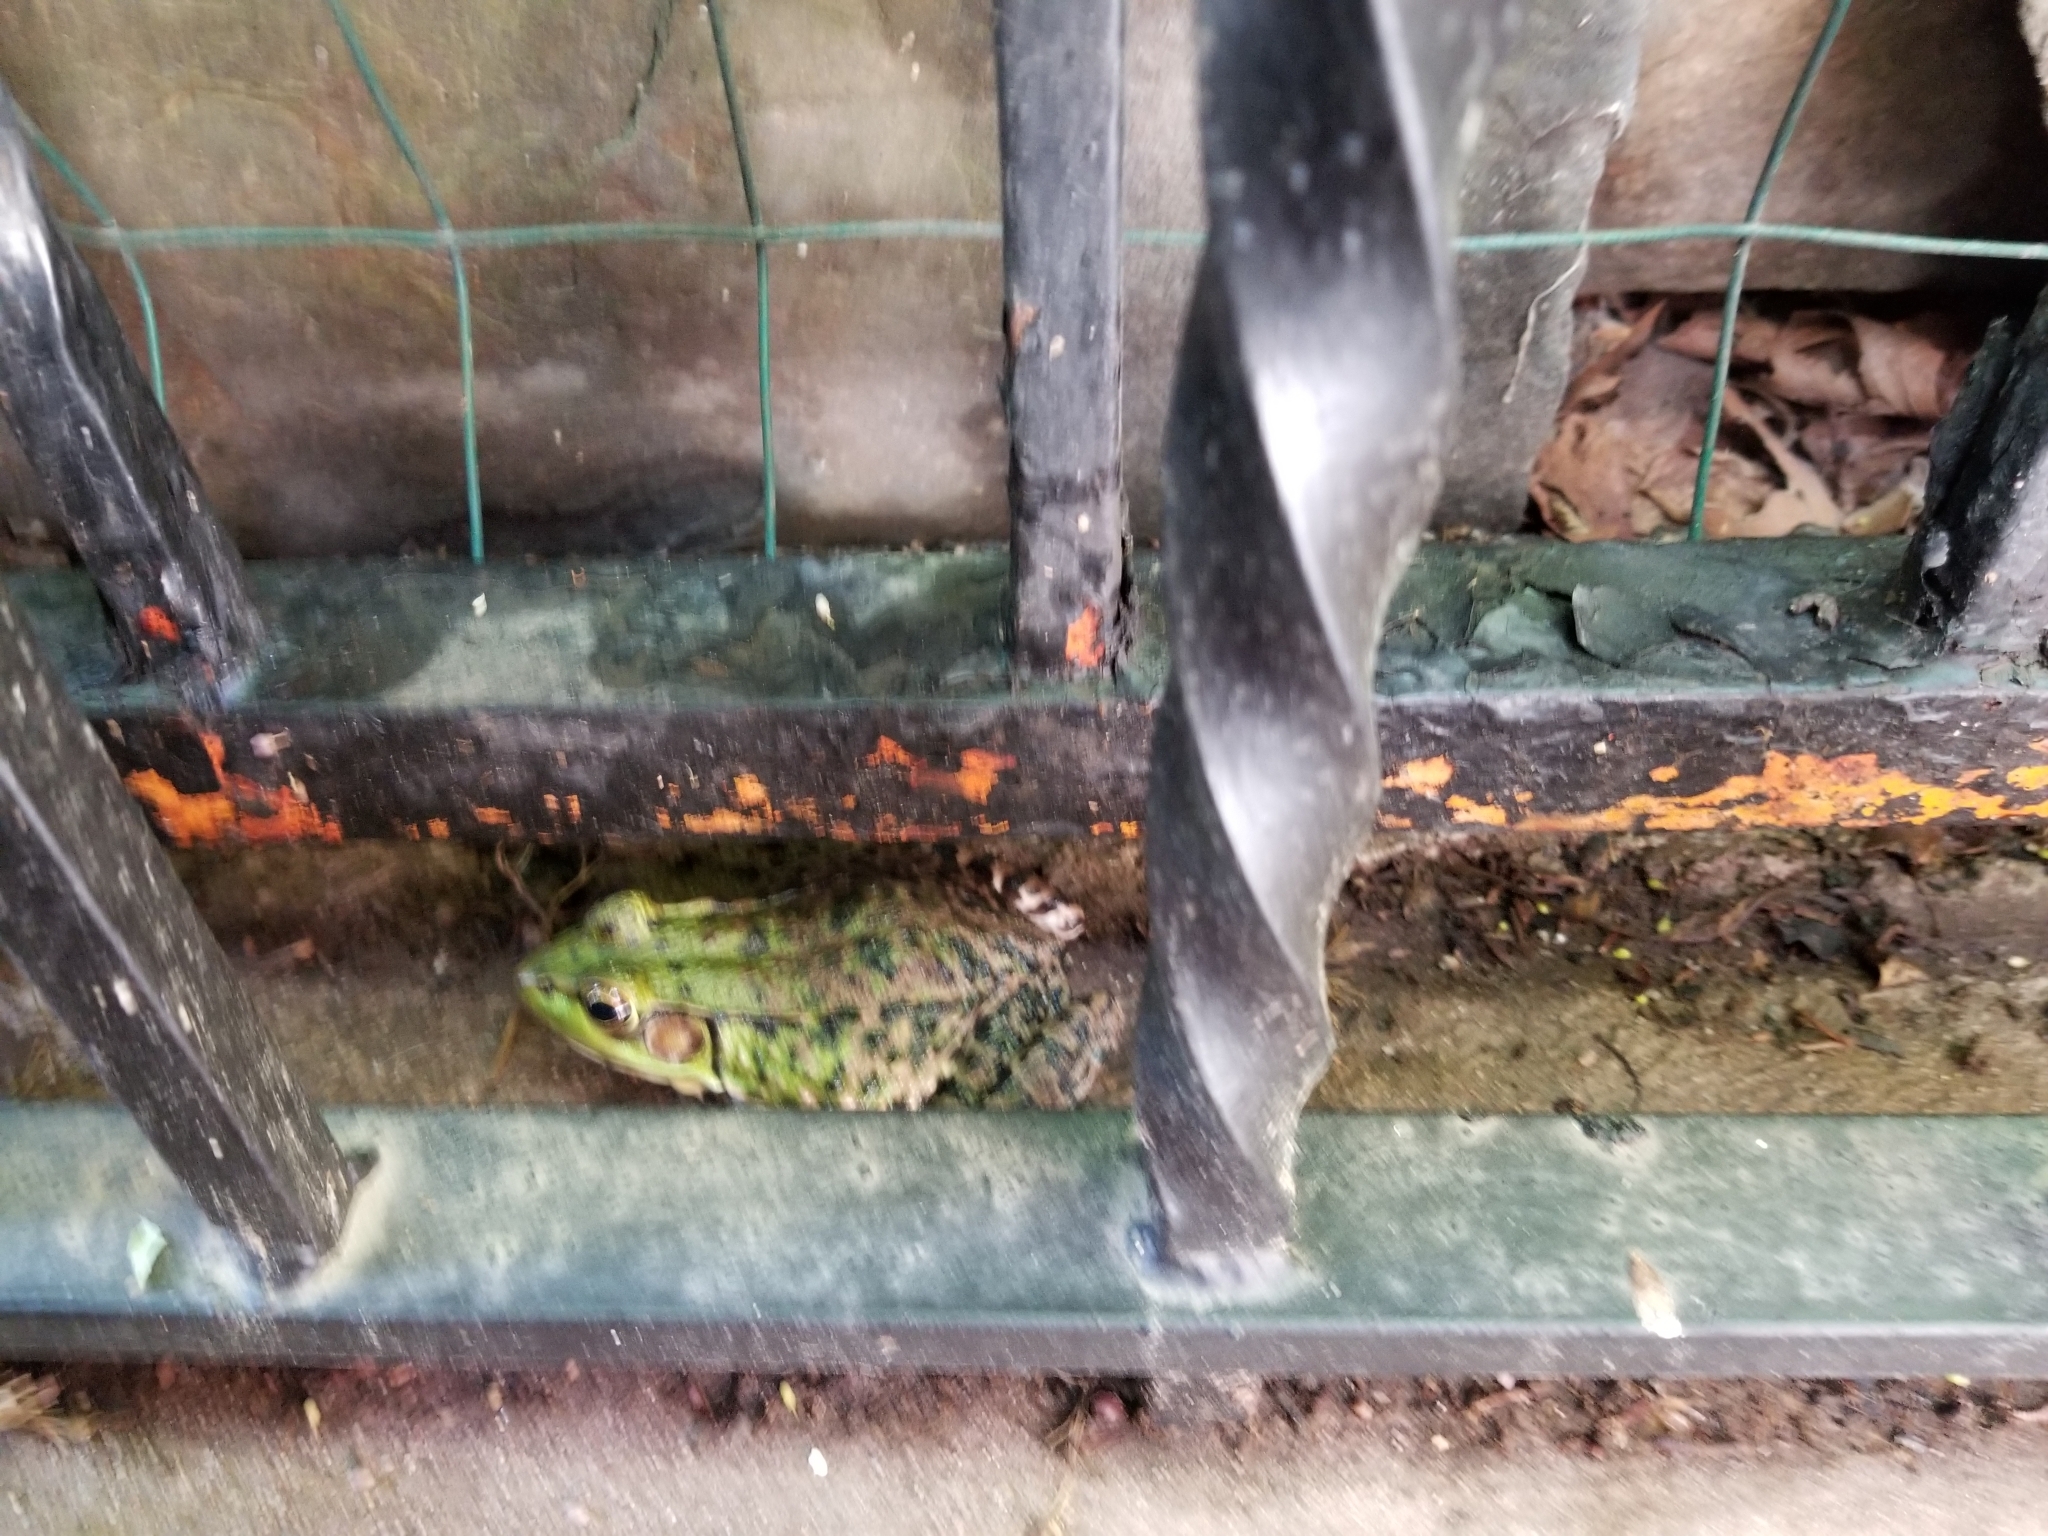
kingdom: Animalia
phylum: Chordata
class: Amphibia
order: Anura
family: Ranidae
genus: Lithobates
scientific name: Lithobates clamitans
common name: Green frog
